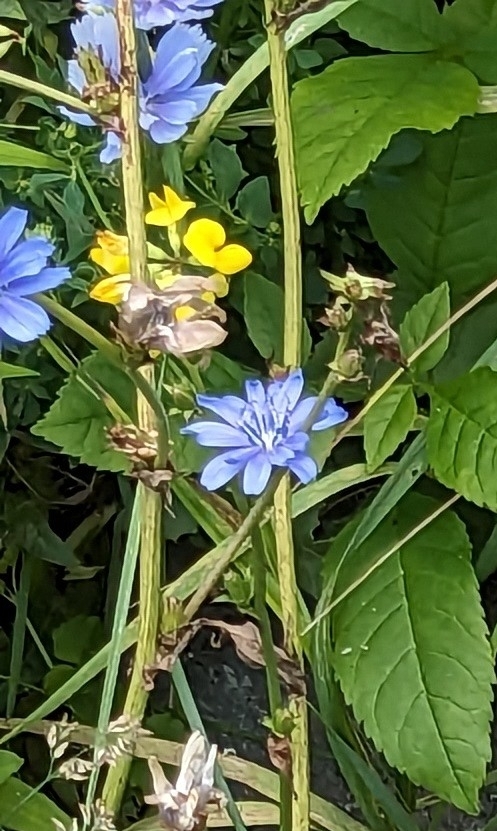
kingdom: Plantae
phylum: Tracheophyta
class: Magnoliopsida
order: Asterales
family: Asteraceae
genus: Cichorium
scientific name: Cichorium intybus
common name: Chicory
